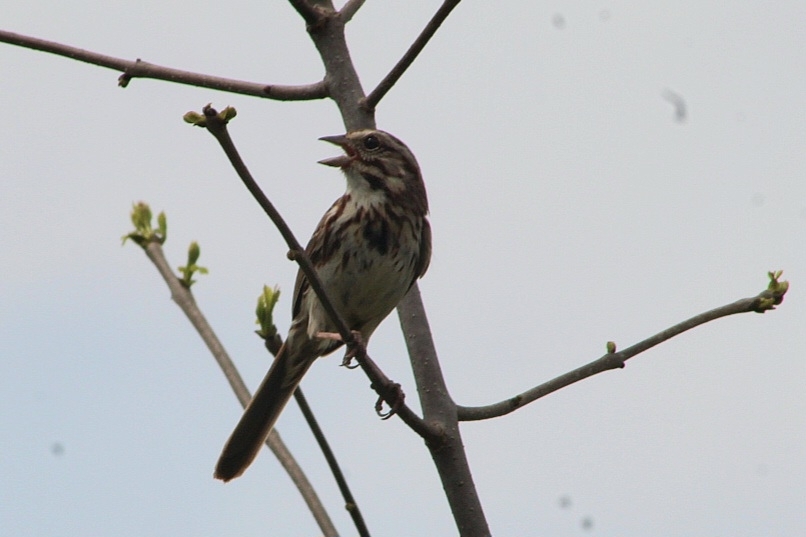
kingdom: Animalia
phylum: Chordata
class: Aves
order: Passeriformes
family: Passerellidae
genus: Melospiza
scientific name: Melospiza melodia
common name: Song sparrow
